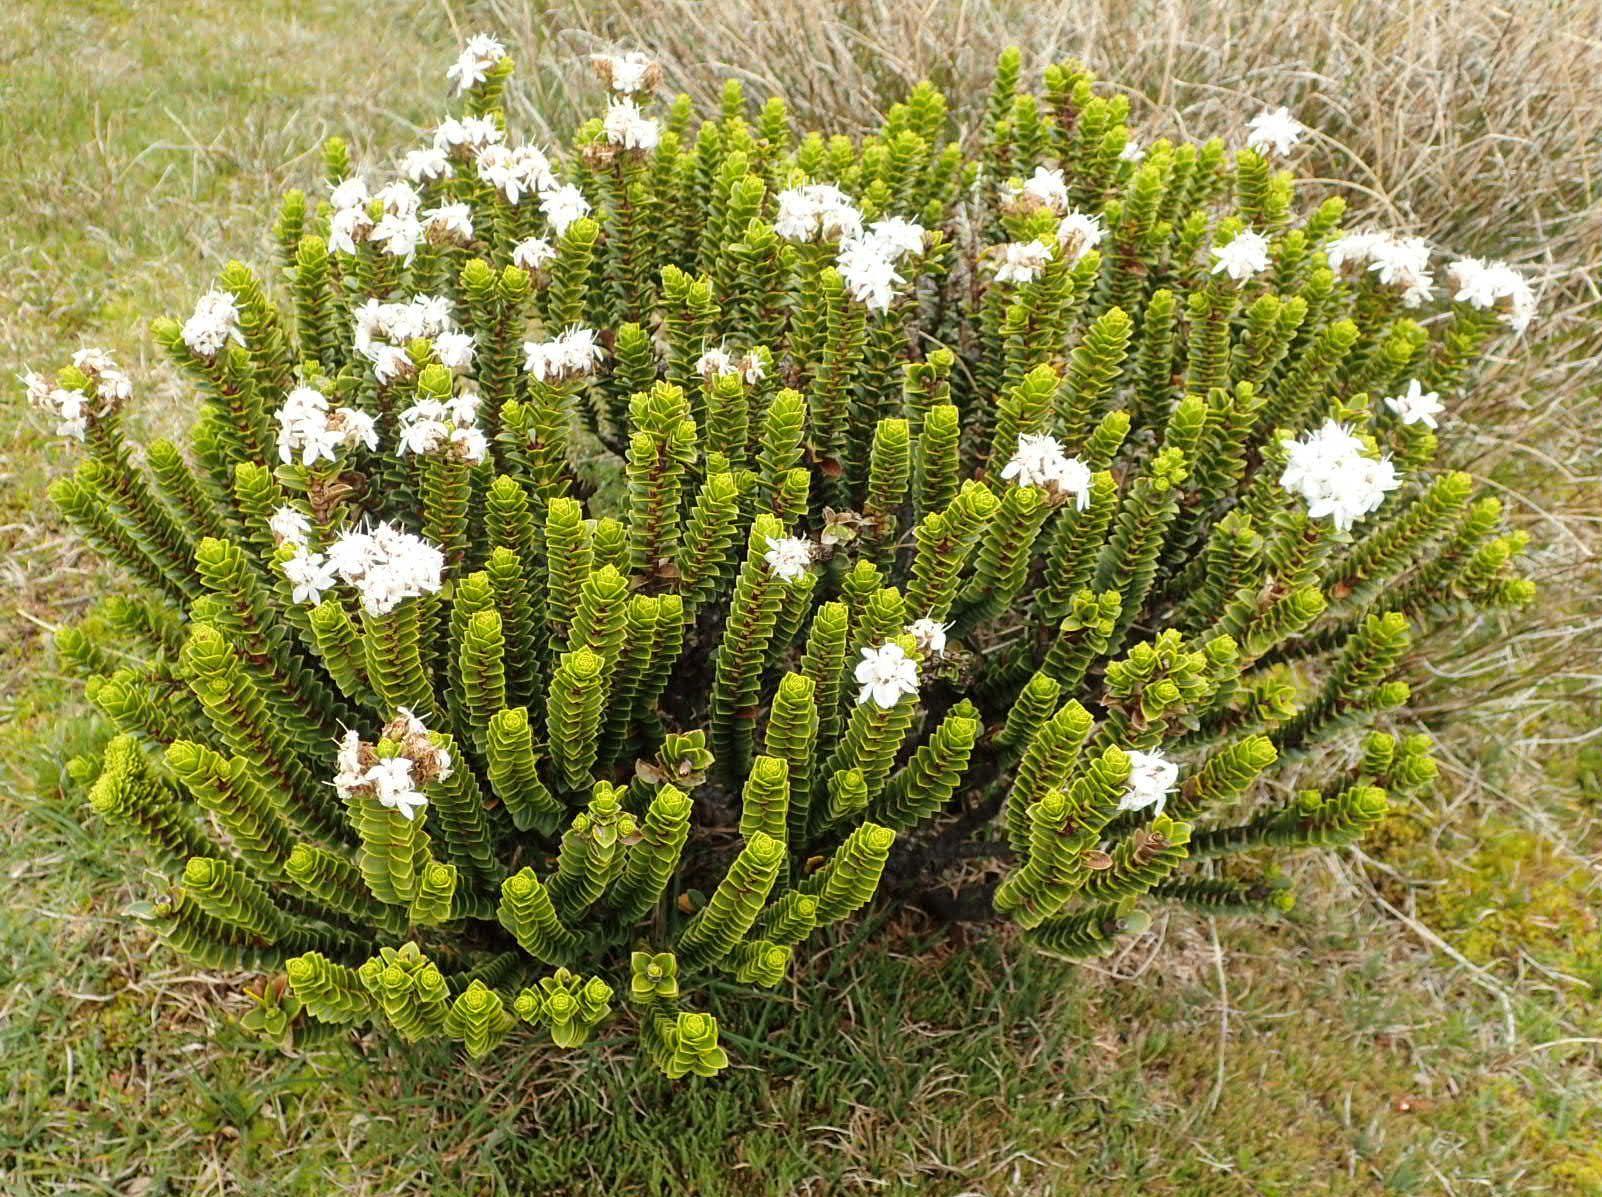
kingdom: Plantae
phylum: Tracheophyta
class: Magnoliopsida
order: Lamiales
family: Plantaginaceae
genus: Veronica
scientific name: Veronica pauciramosa
